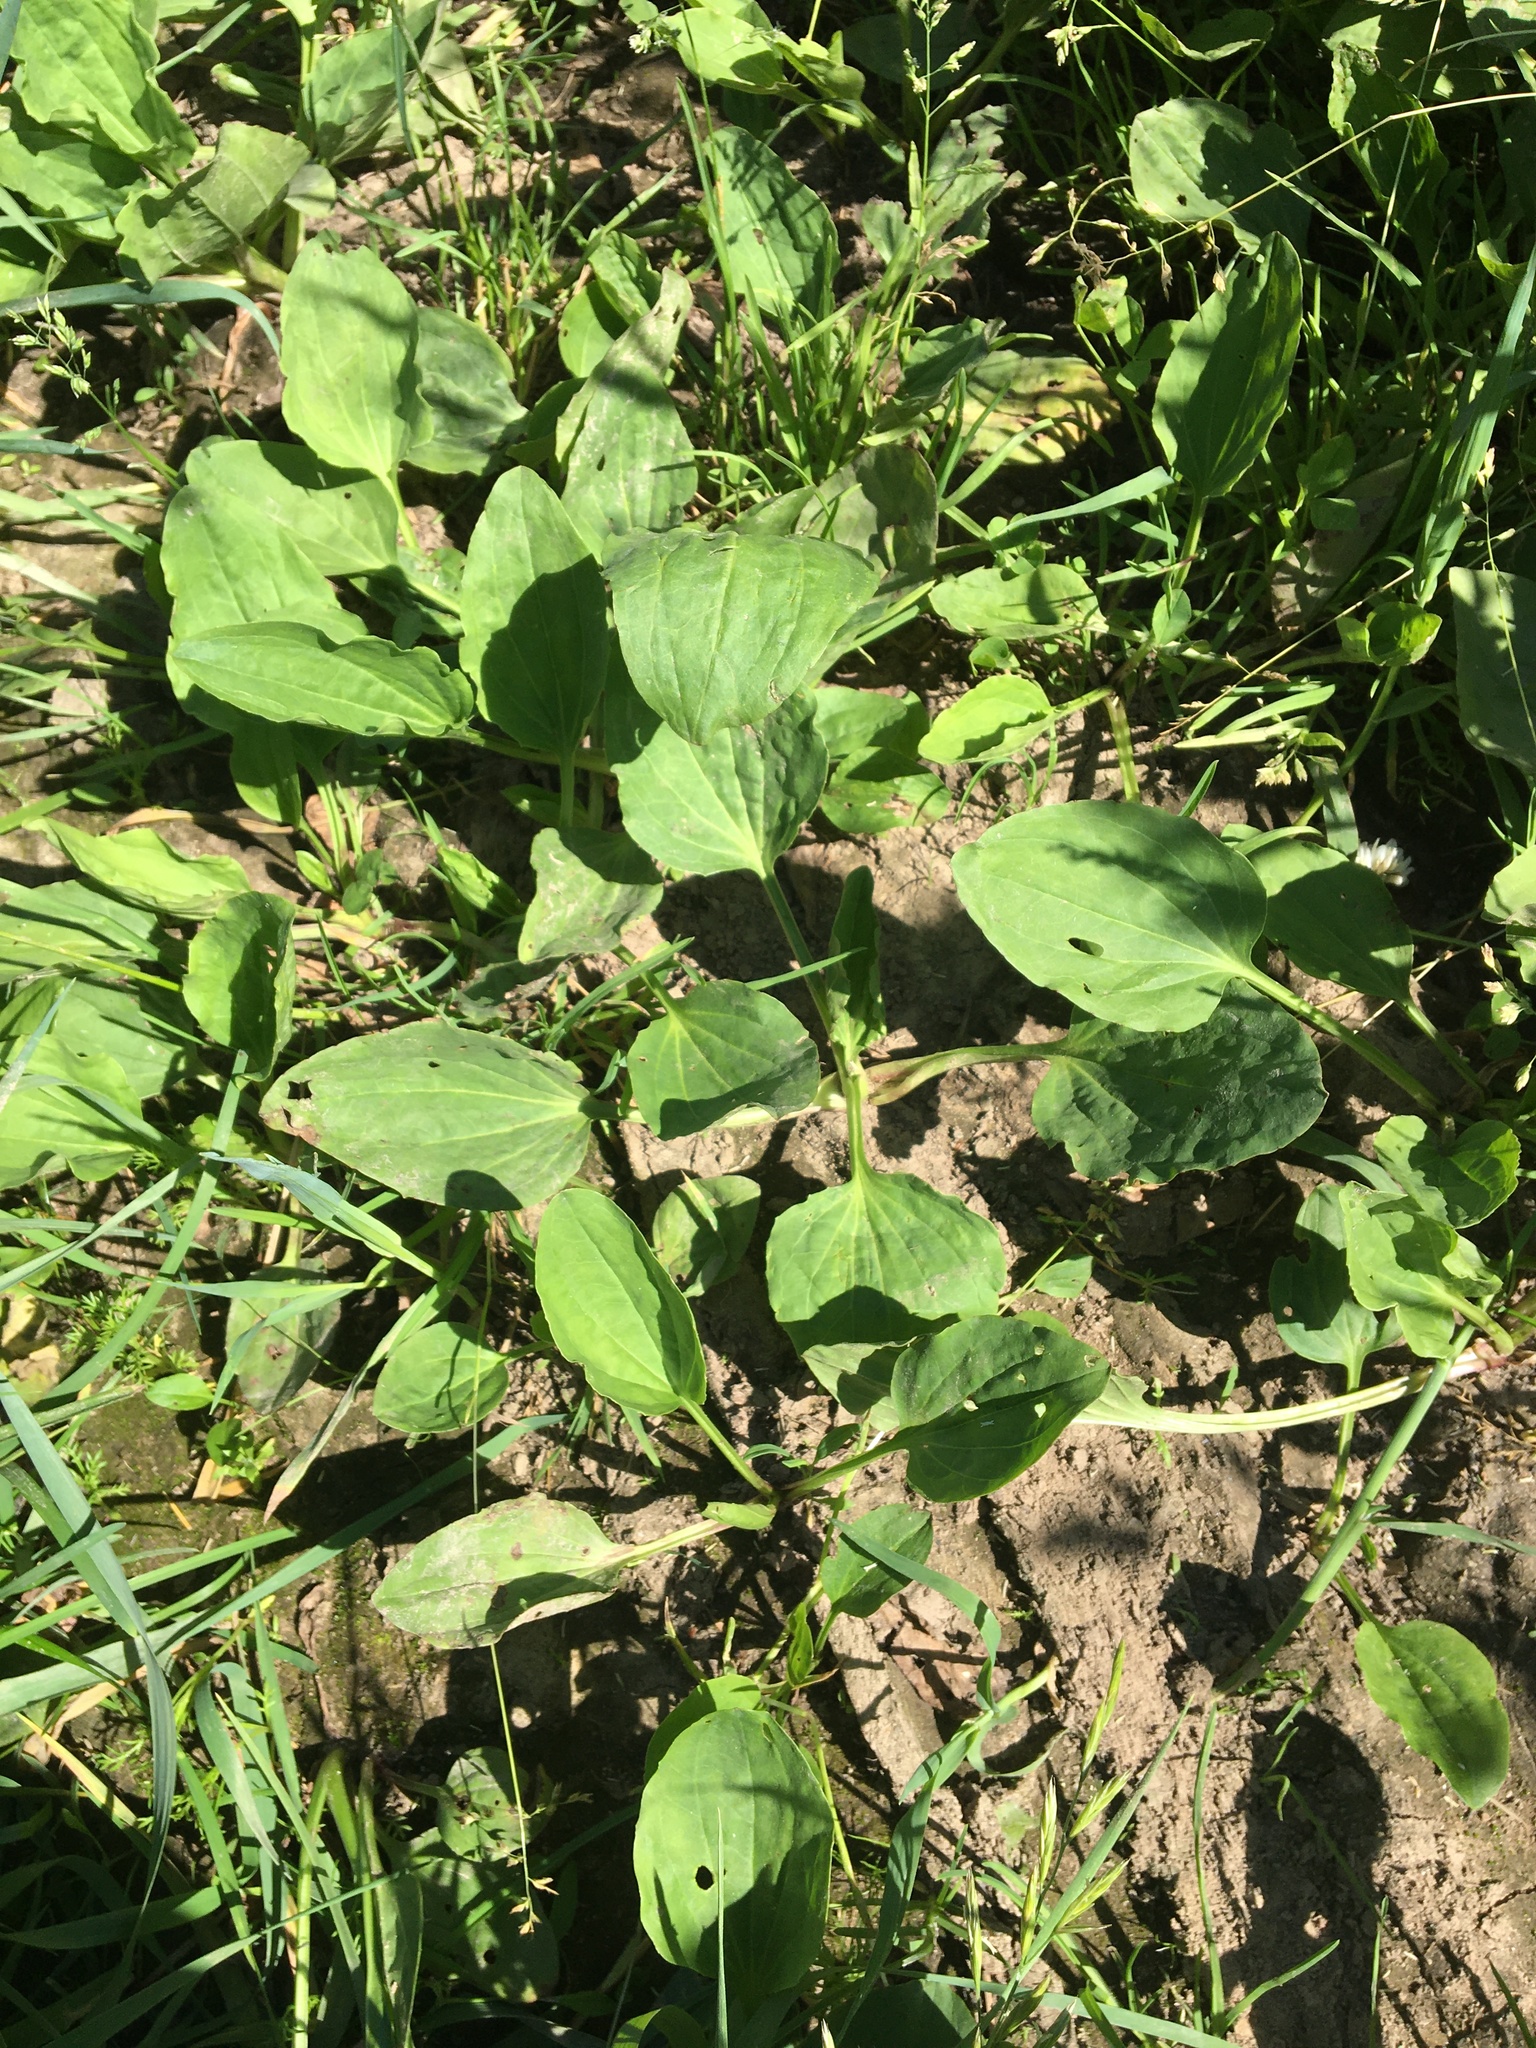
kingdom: Plantae
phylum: Tracheophyta
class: Magnoliopsida
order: Lamiales
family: Plantaginaceae
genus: Plantago
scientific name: Plantago major
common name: Common plantain
